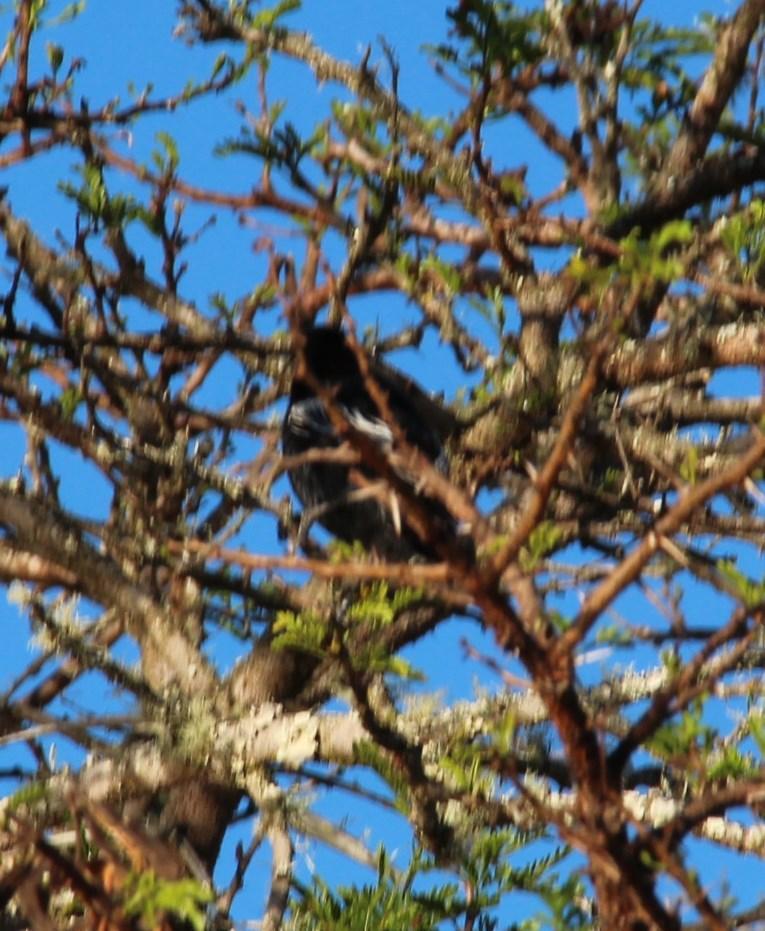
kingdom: Animalia
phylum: Chordata
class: Aves
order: Passeriformes
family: Paridae
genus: Parus
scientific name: Parus niger
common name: Southern black tit
